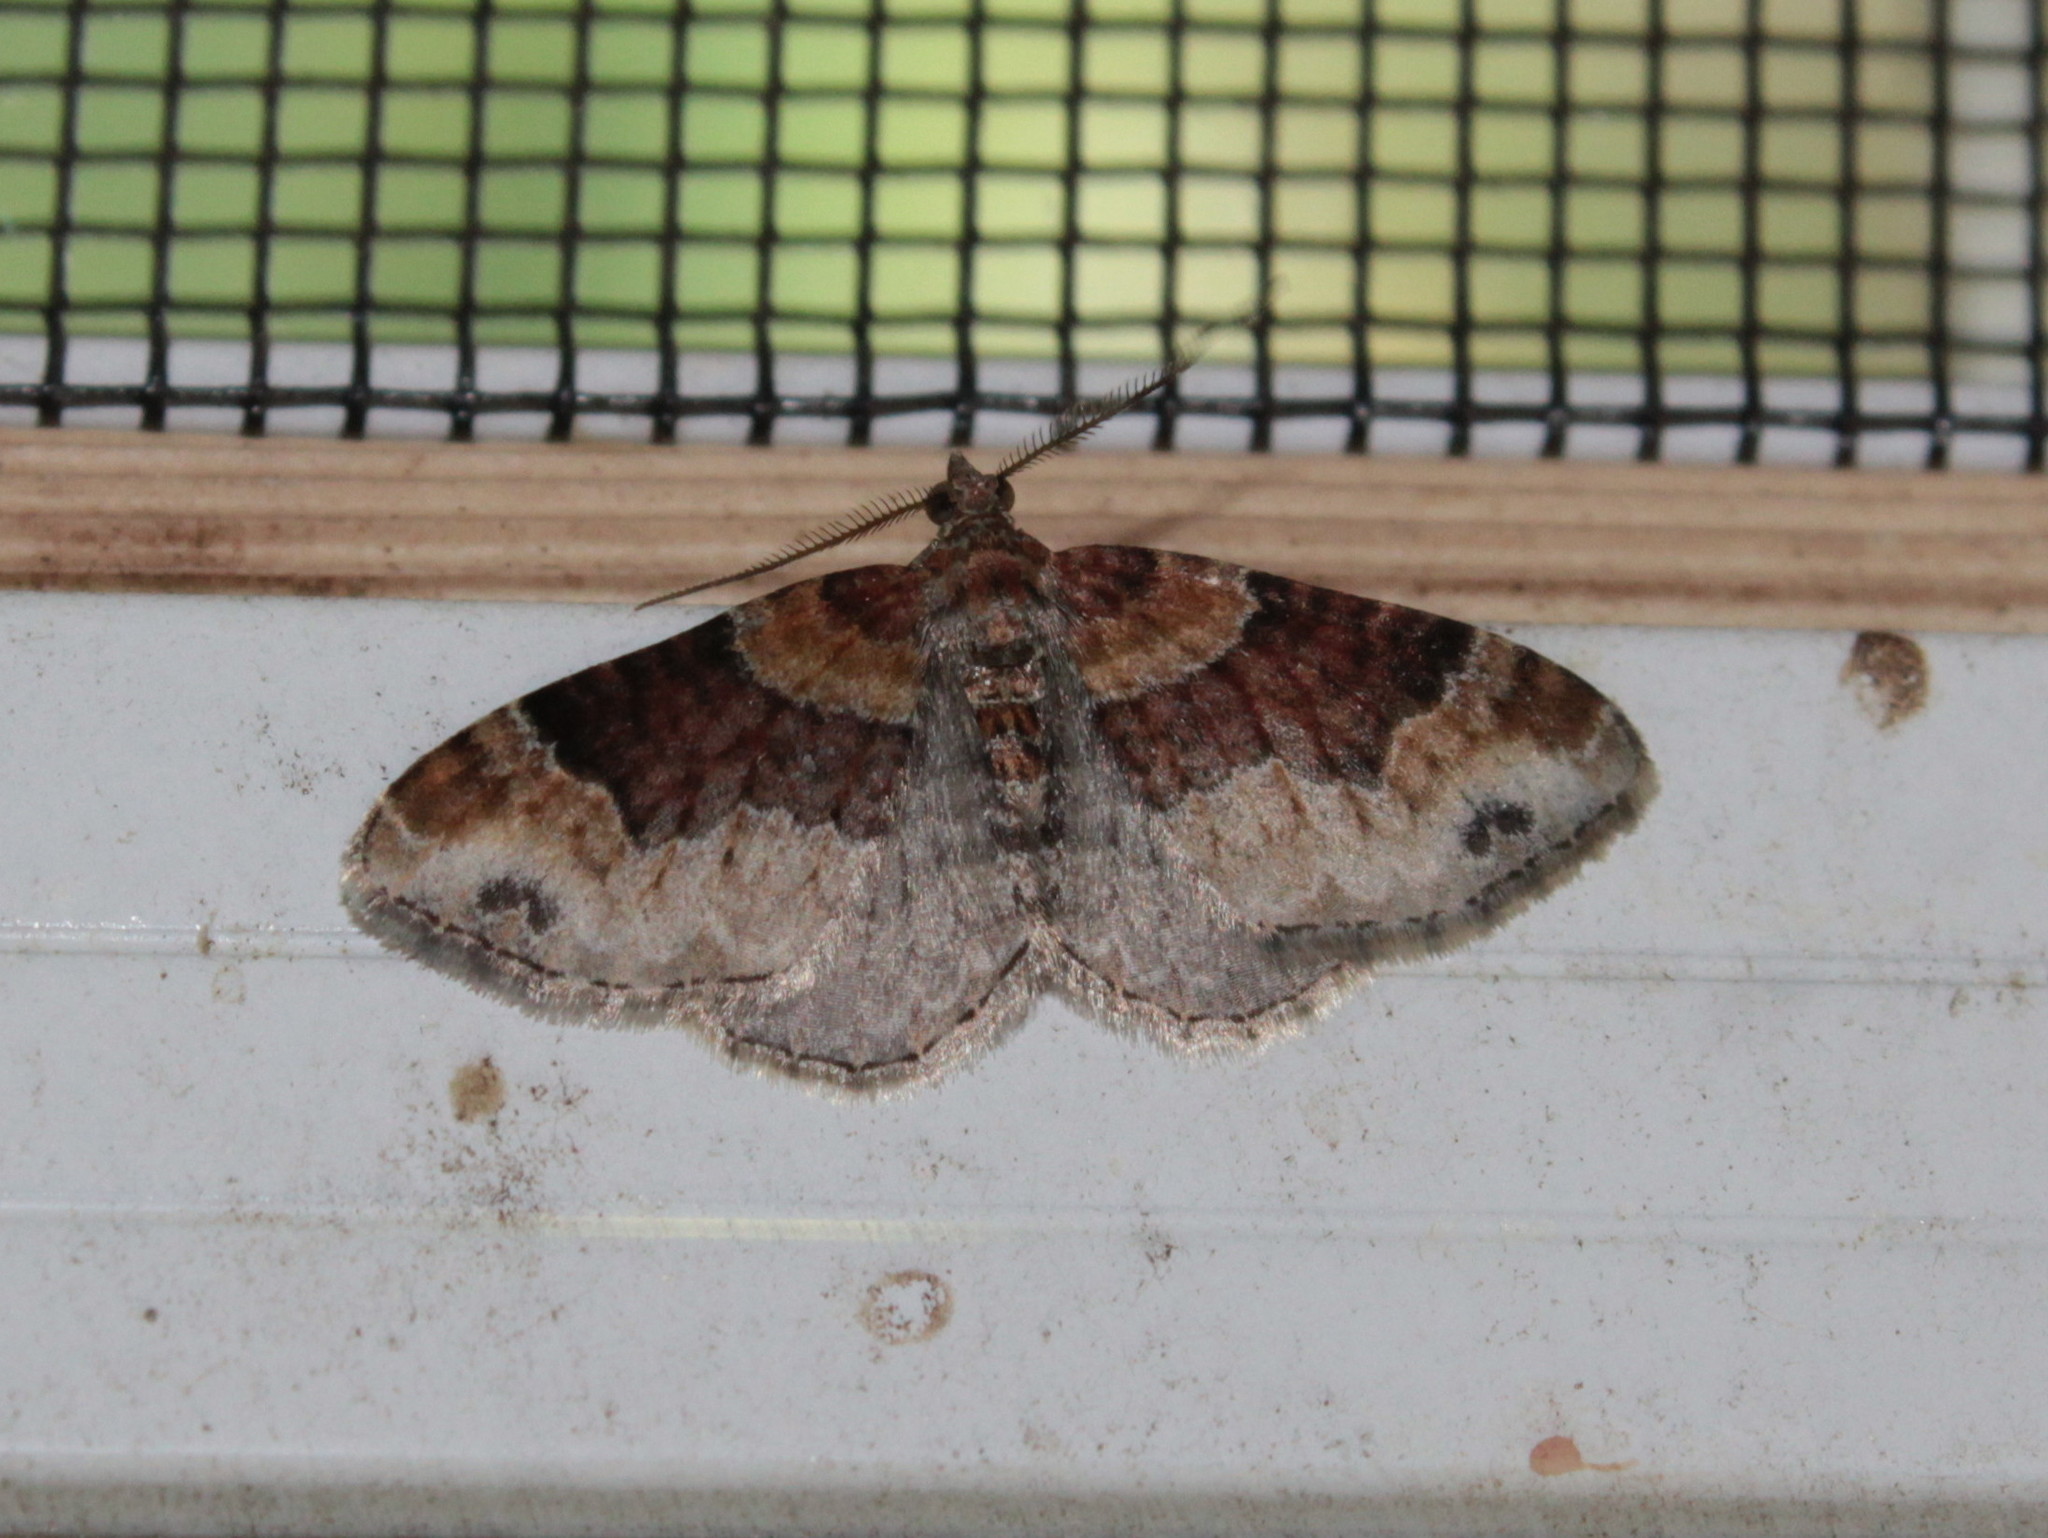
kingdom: Animalia
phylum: Arthropoda
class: Insecta
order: Lepidoptera
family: Geometridae
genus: Xanthorhoe
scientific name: Xanthorhoe ferrugata
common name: Dark-barred twin-spot carpet
